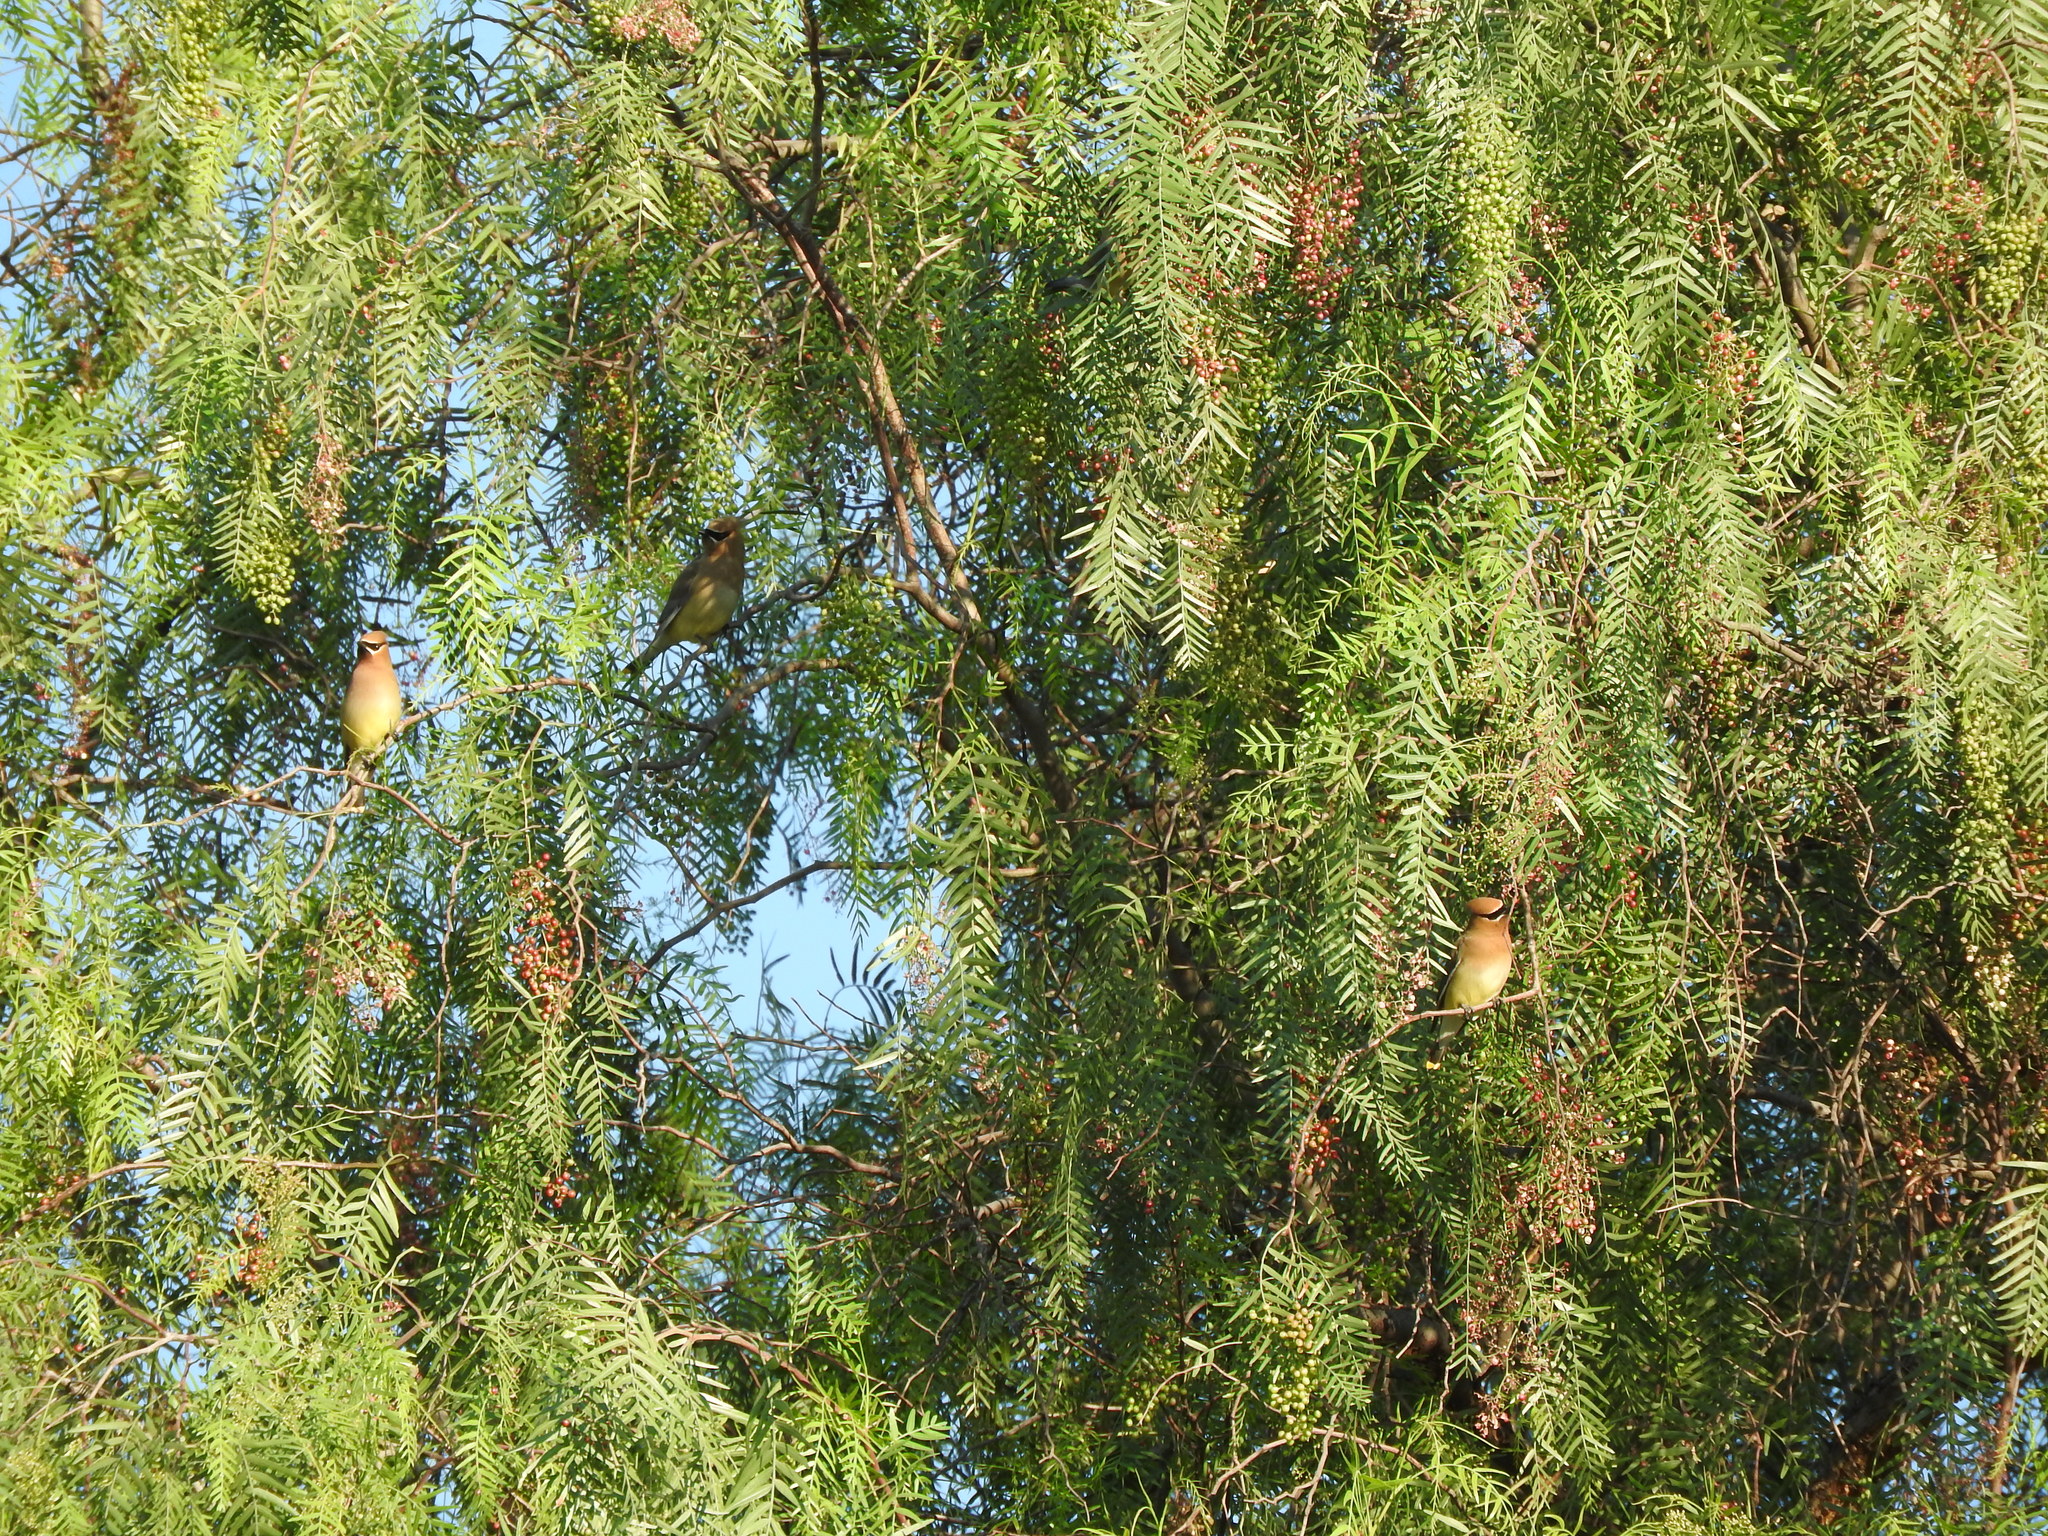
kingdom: Animalia
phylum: Chordata
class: Aves
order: Passeriformes
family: Bombycillidae
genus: Bombycilla
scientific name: Bombycilla cedrorum
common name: Cedar waxwing
